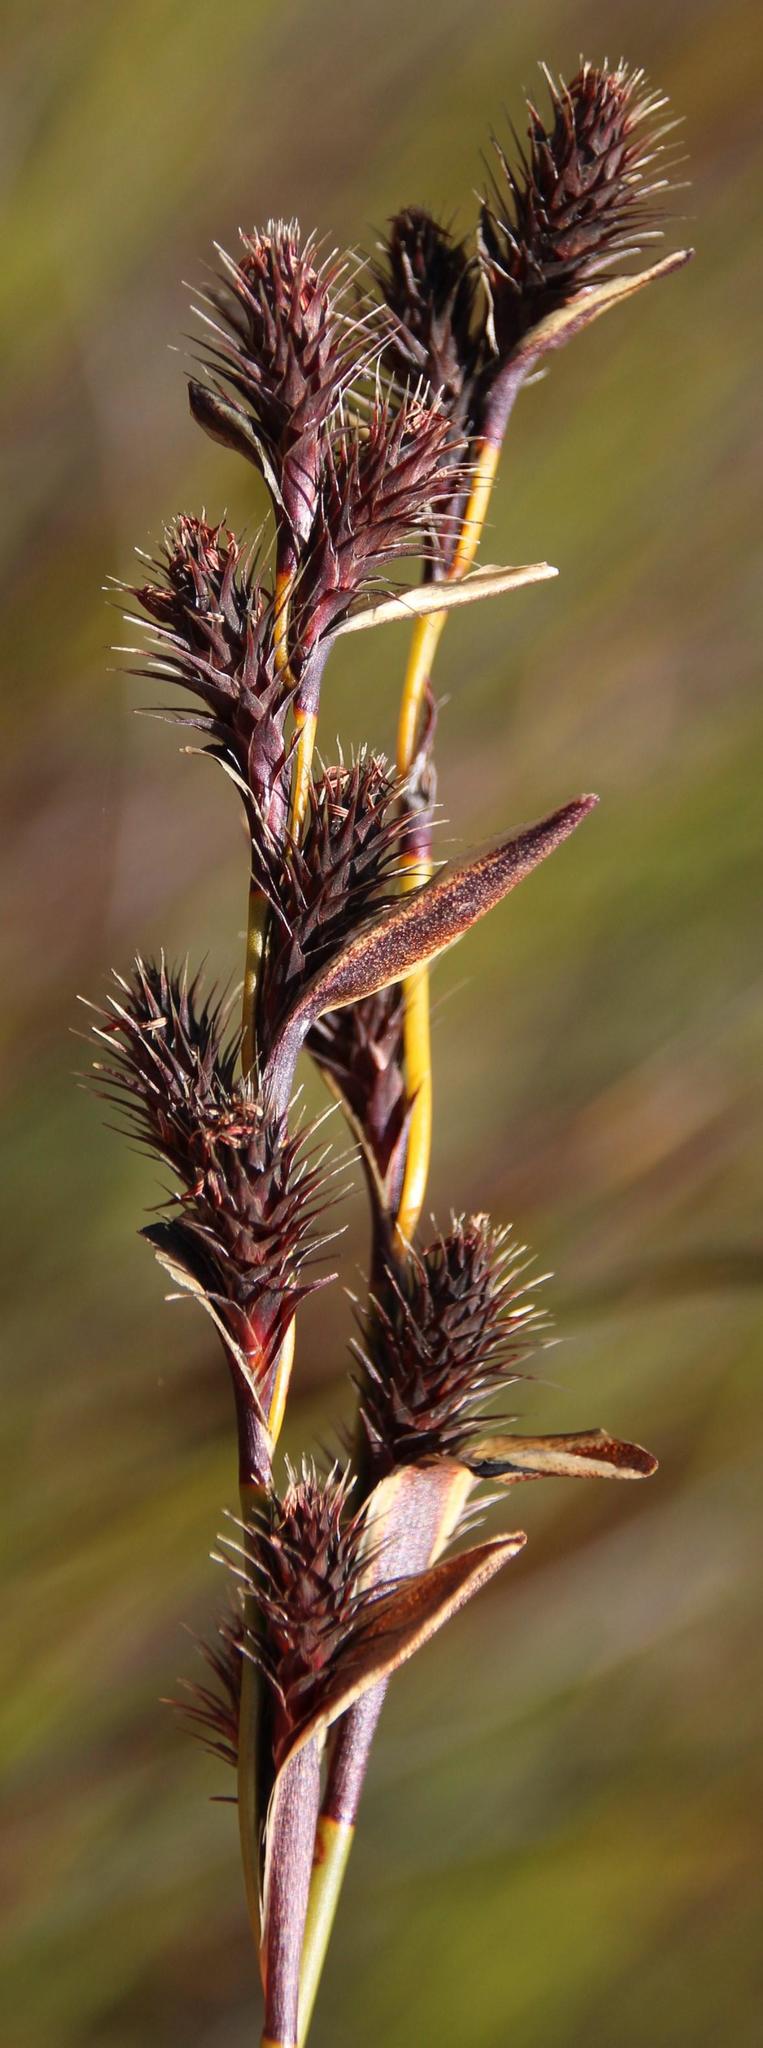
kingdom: Plantae
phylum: Tracheophyta
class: Liliopsida
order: Poales
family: Restionaceae
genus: Hypodiscus
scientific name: Hypodiscus laevigatus
